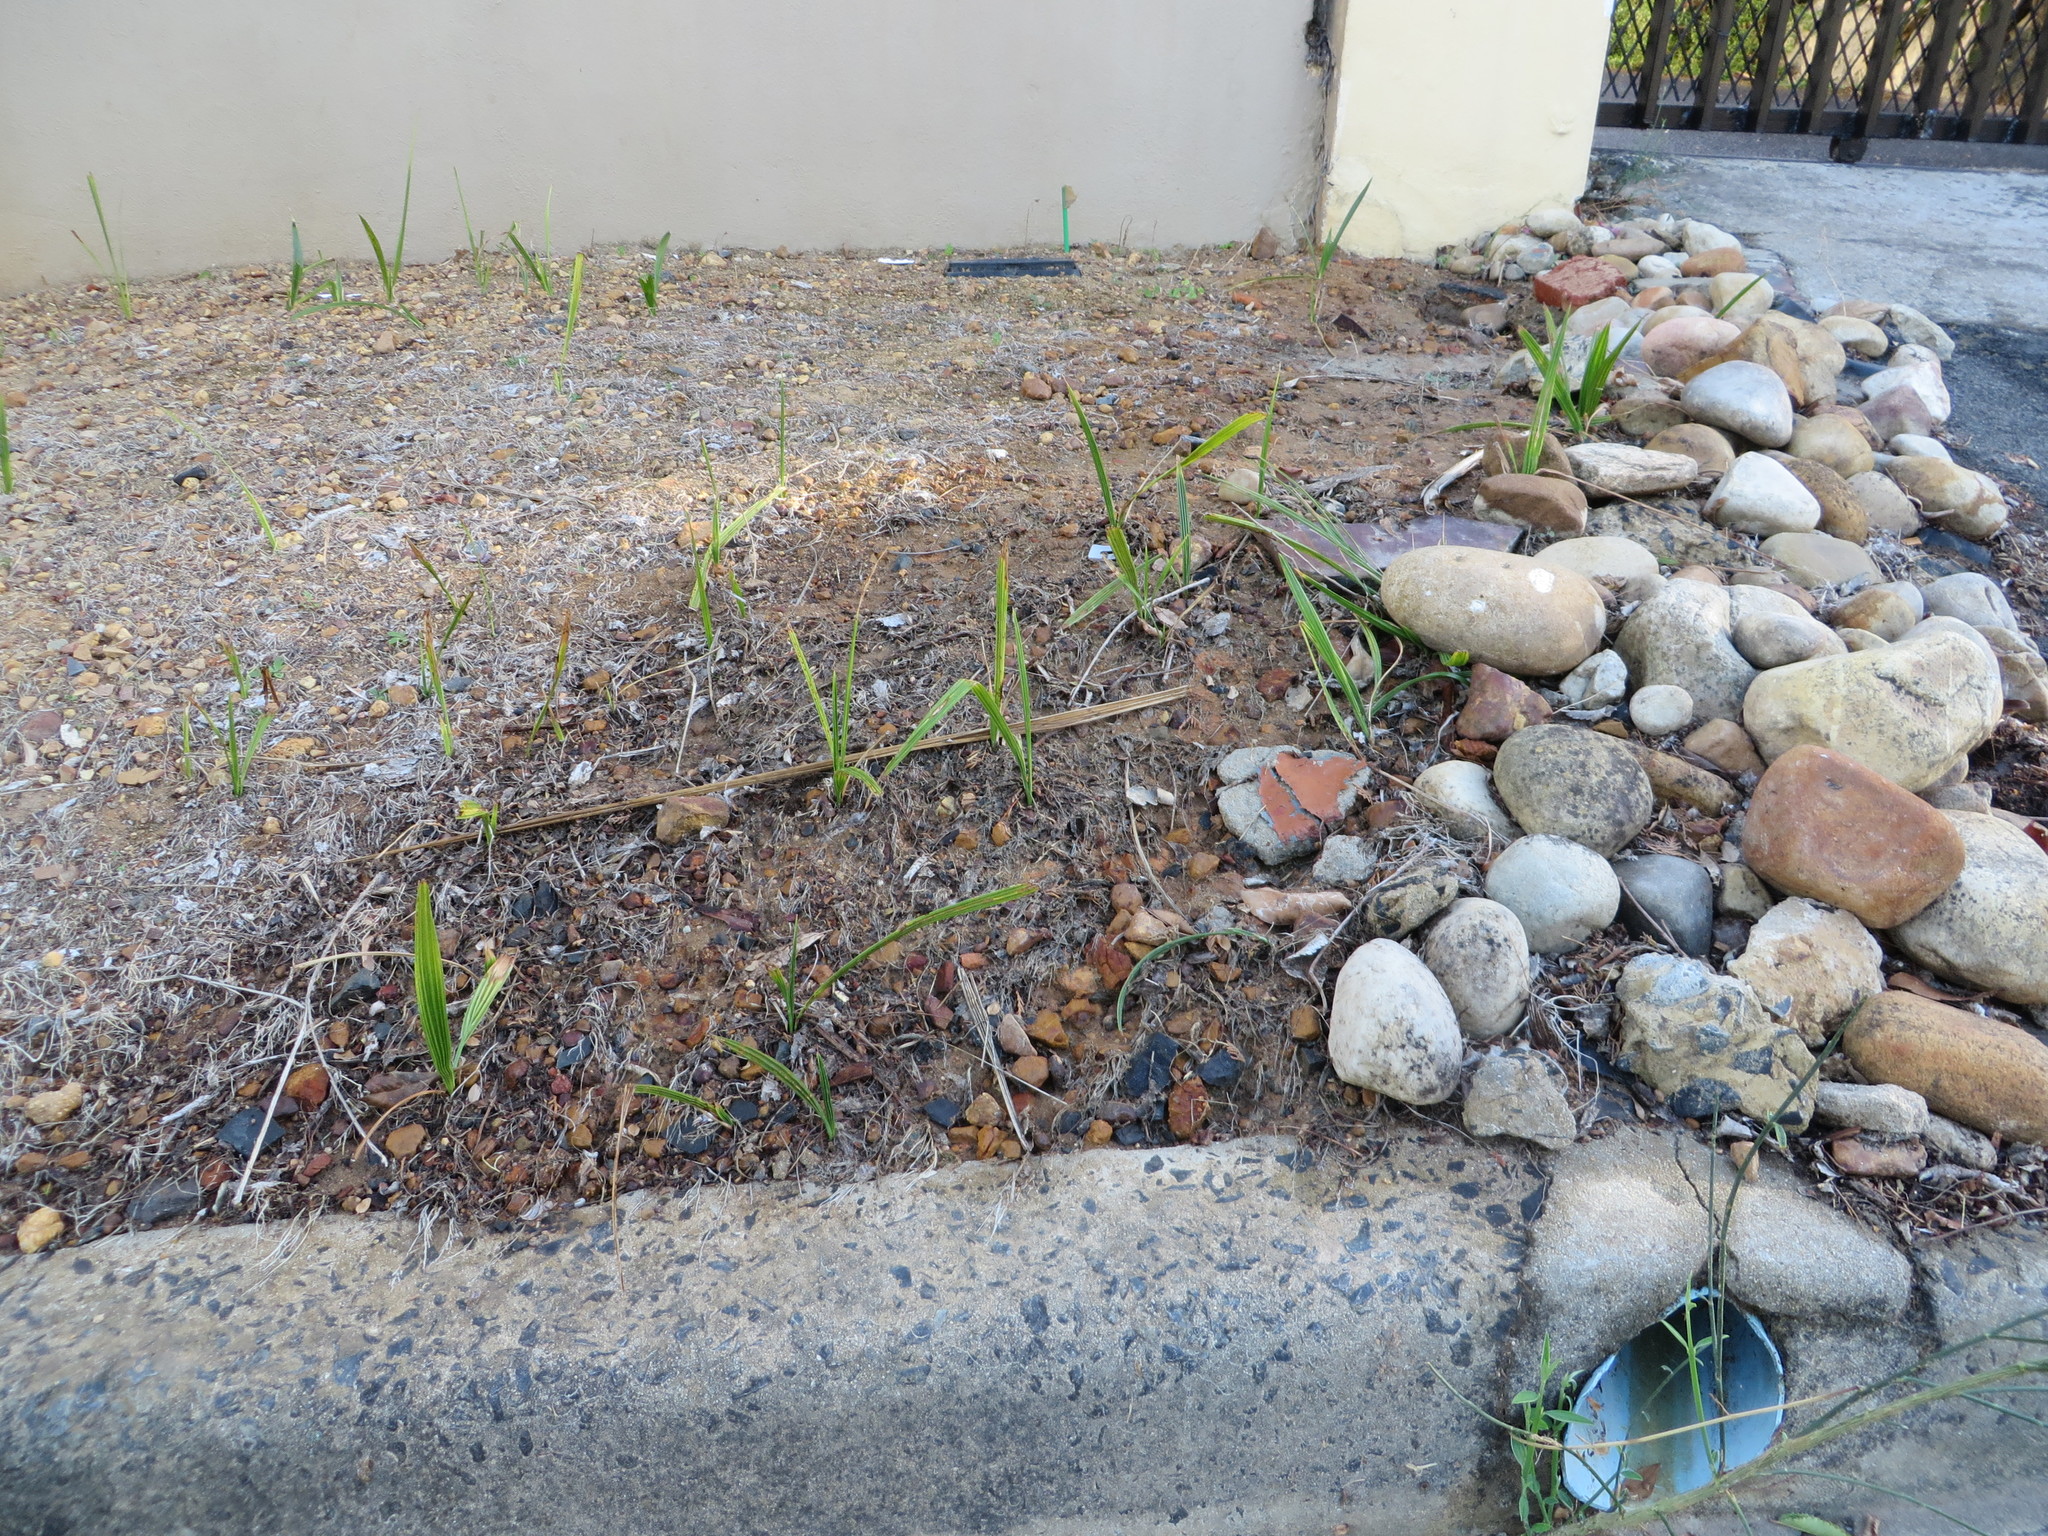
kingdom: Plantae
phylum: Tracheophyta
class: Liliopsida
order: Arecales
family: Arecaceae
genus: Phoenix
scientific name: Phoenix canariensis
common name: Canary island date palm
